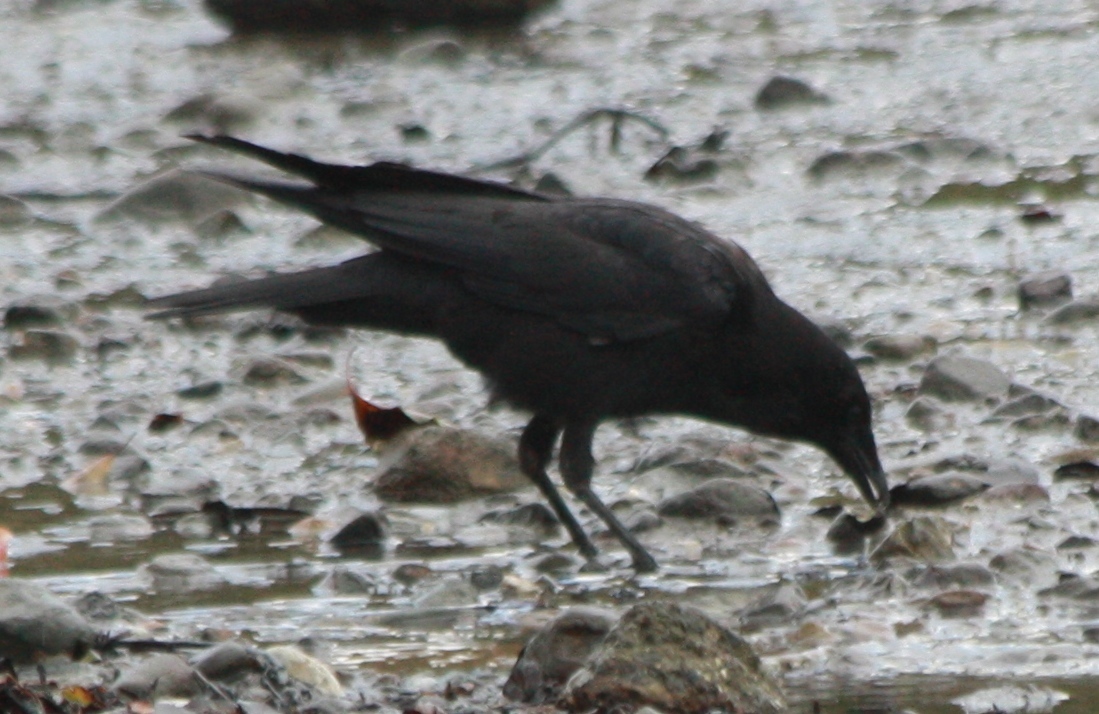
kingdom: Animalia
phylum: Chordata
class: Aves
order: Passeriformes
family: Corvidae
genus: Corvus
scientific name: Corvus brachyrhynchos
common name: American crow
